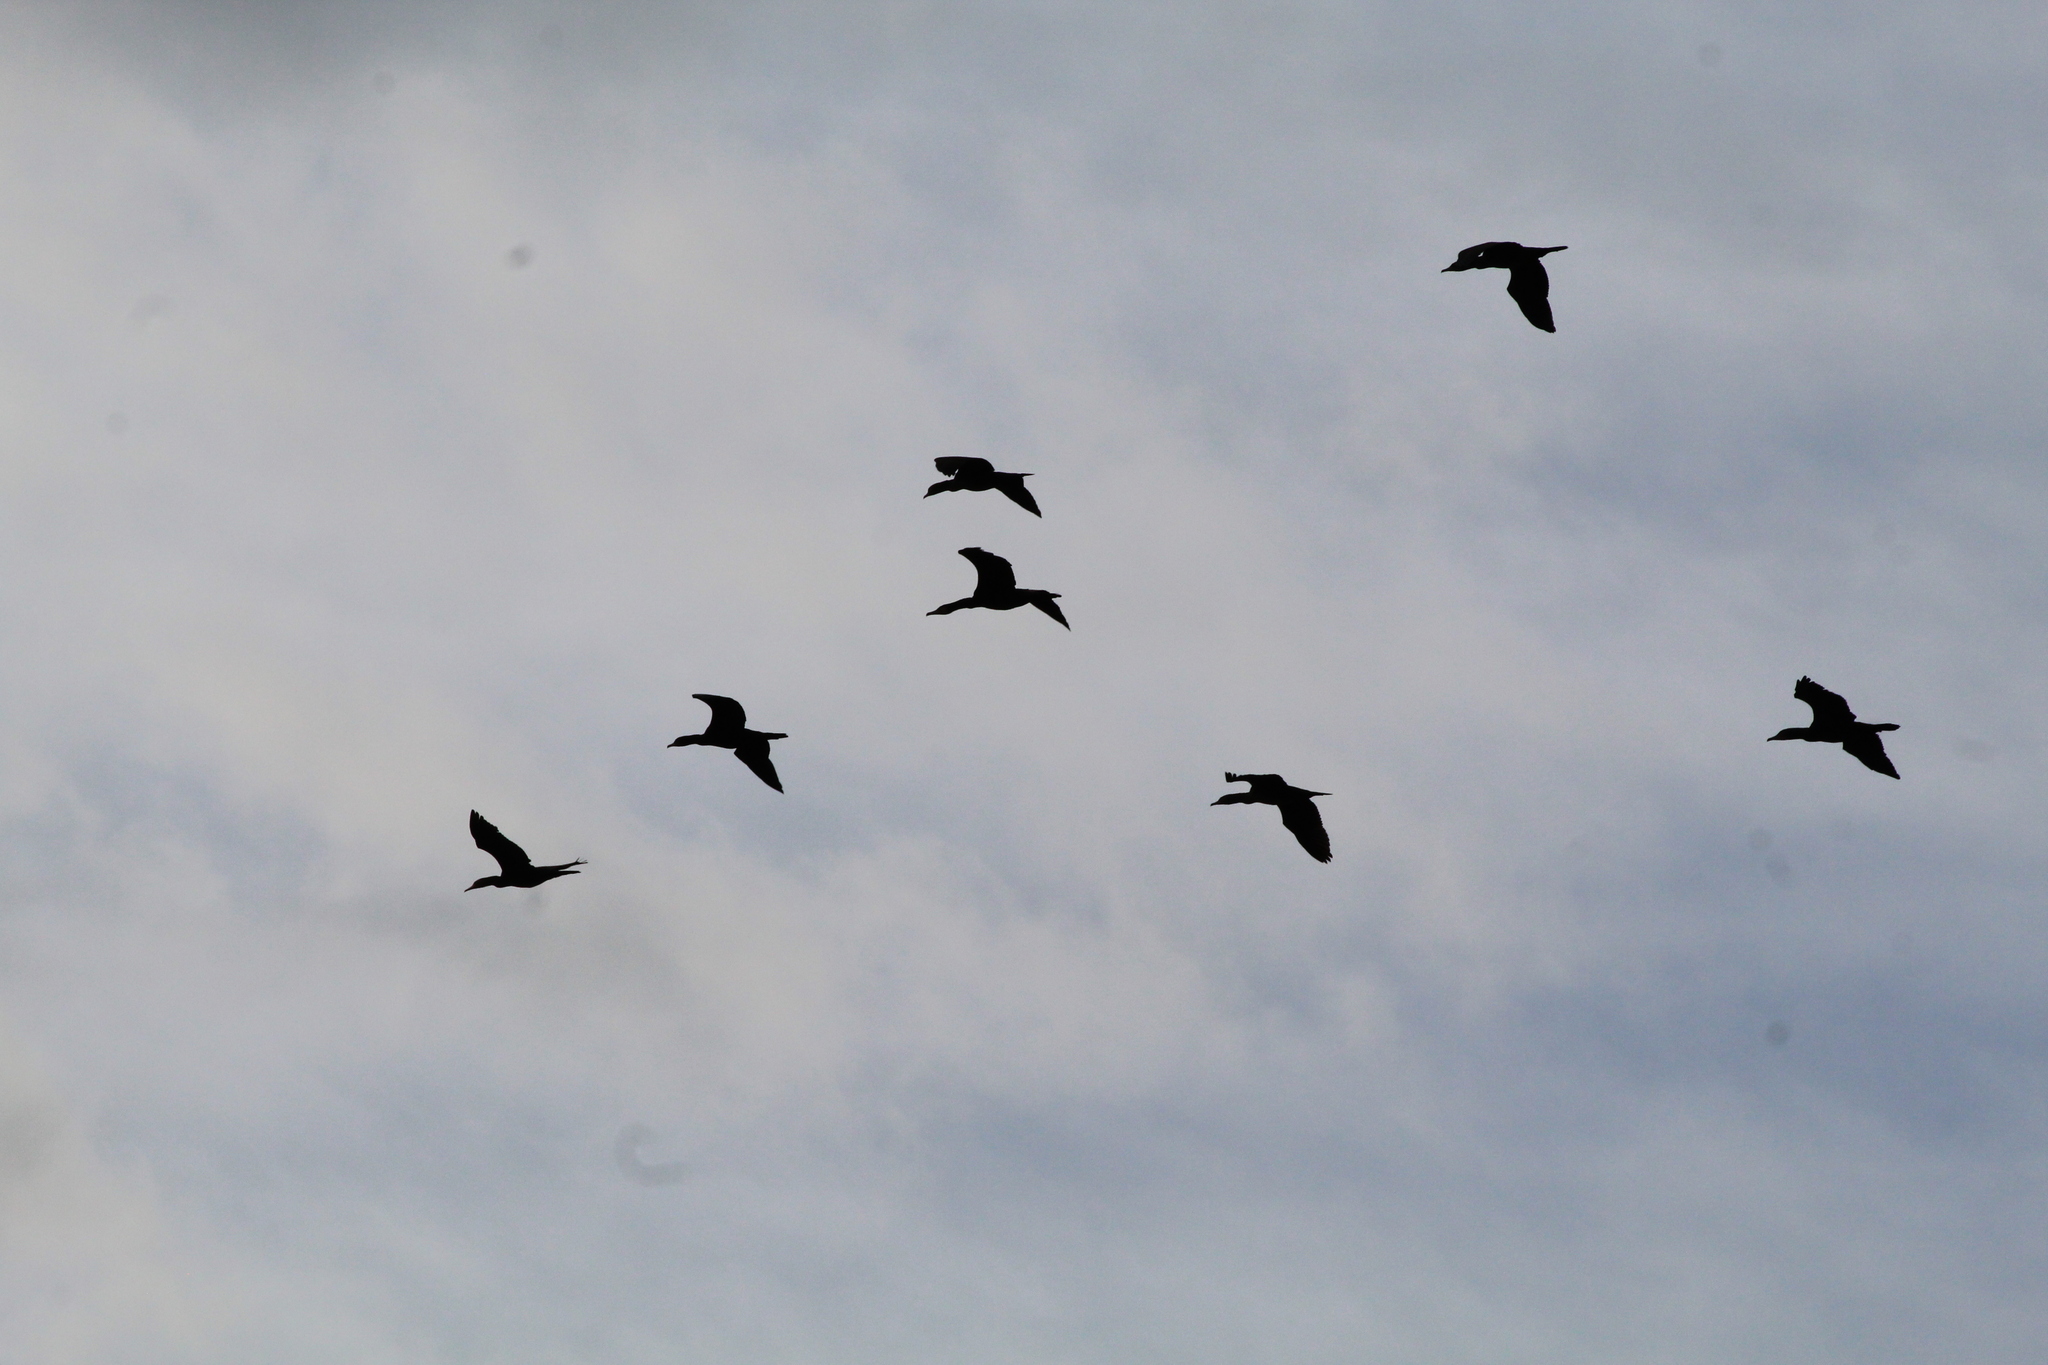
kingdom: Animalia
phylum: Chordata
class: Aves
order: Suliformes
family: Phalacrocoracidae
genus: Phalacrocorax
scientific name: Phalacrocorax carbo
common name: Great cormorant
